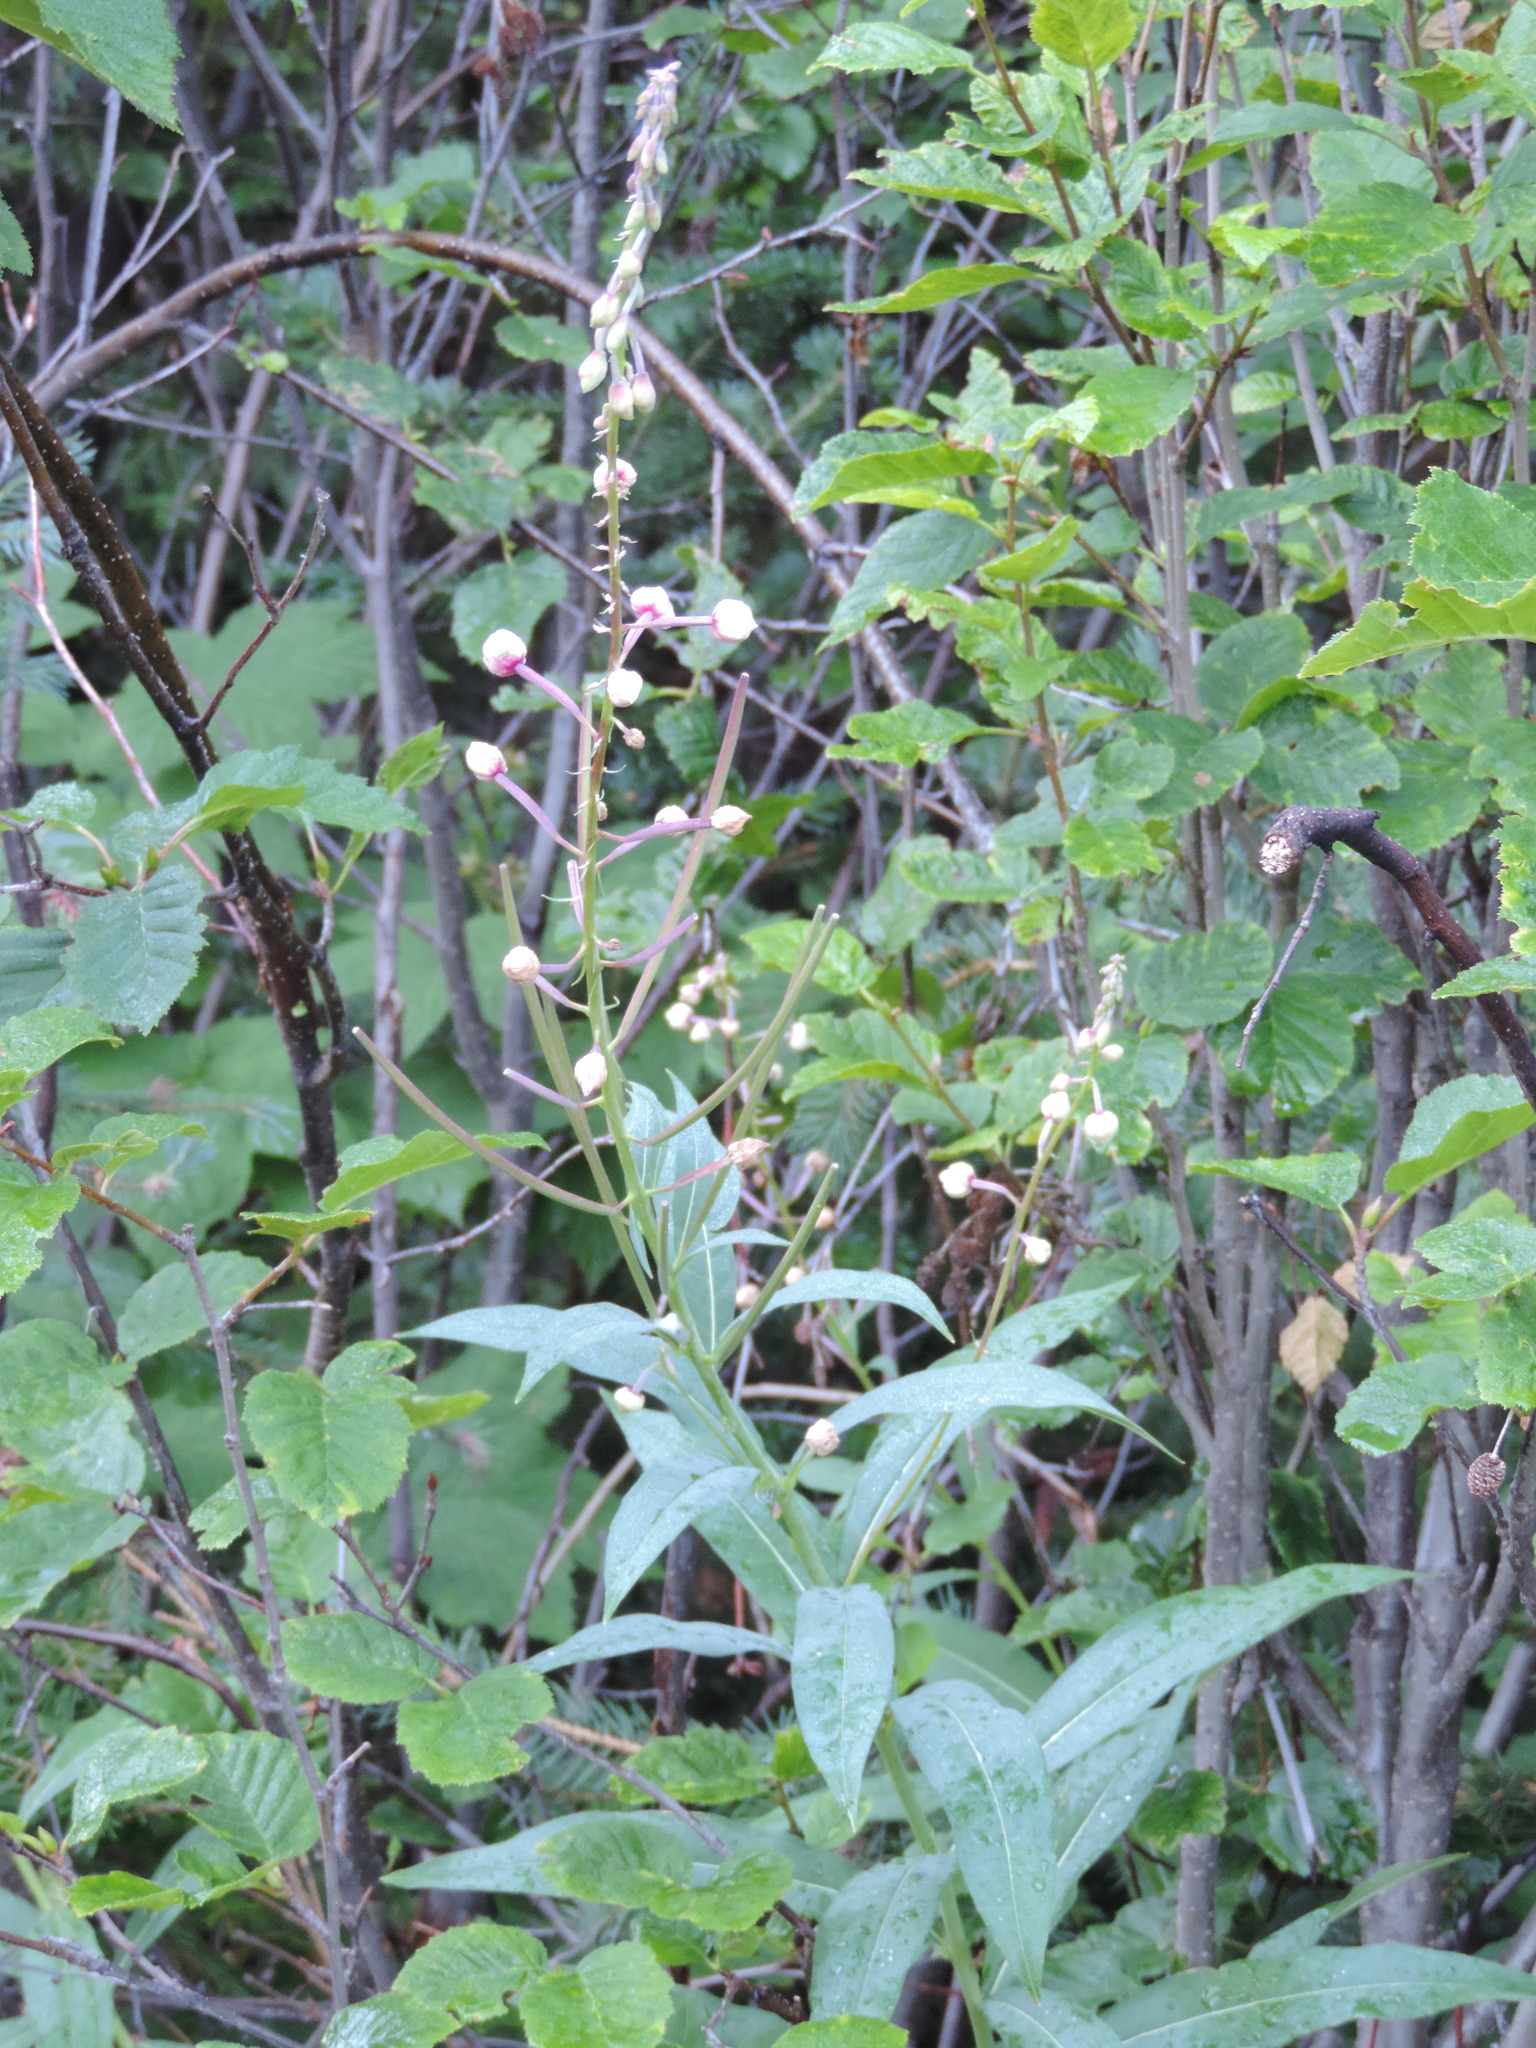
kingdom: Plantae
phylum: Tracheophyta
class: Magnoliopsida
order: Myrtales
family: Onagraceae
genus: Chamaenerion
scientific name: Chamaenerion angustifolium
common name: Fireweed
